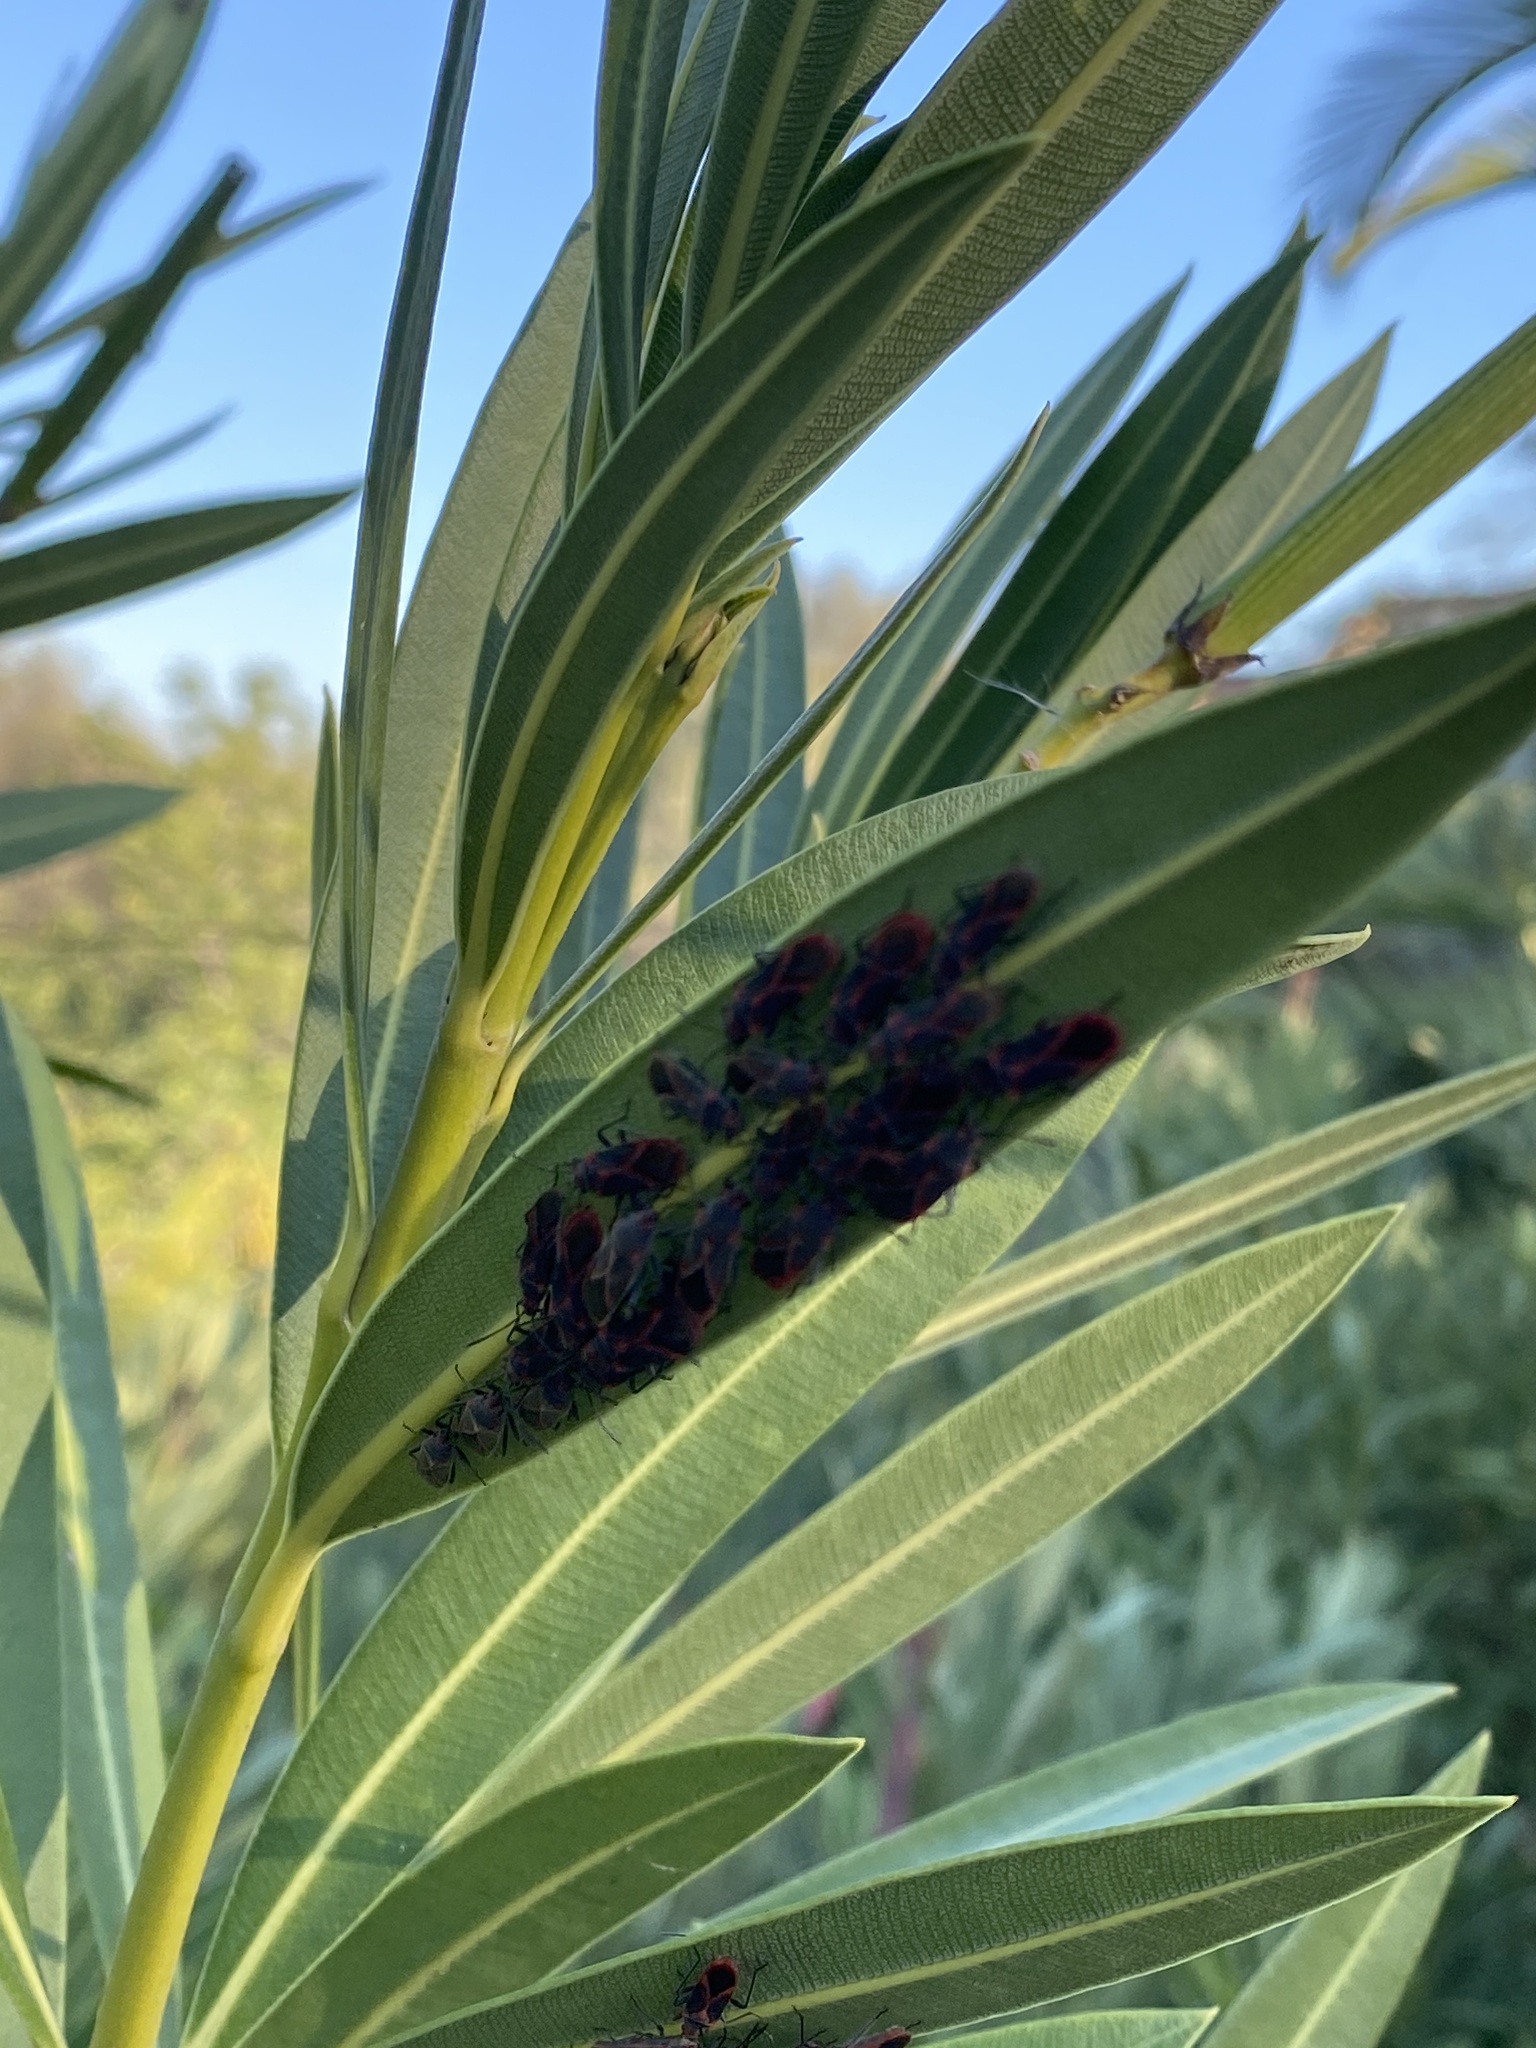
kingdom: Animalia
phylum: Arthropoda
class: Insecta
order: Hemiptera
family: Lygaeidae
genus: Caenocoris
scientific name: Caenocoris nerii
